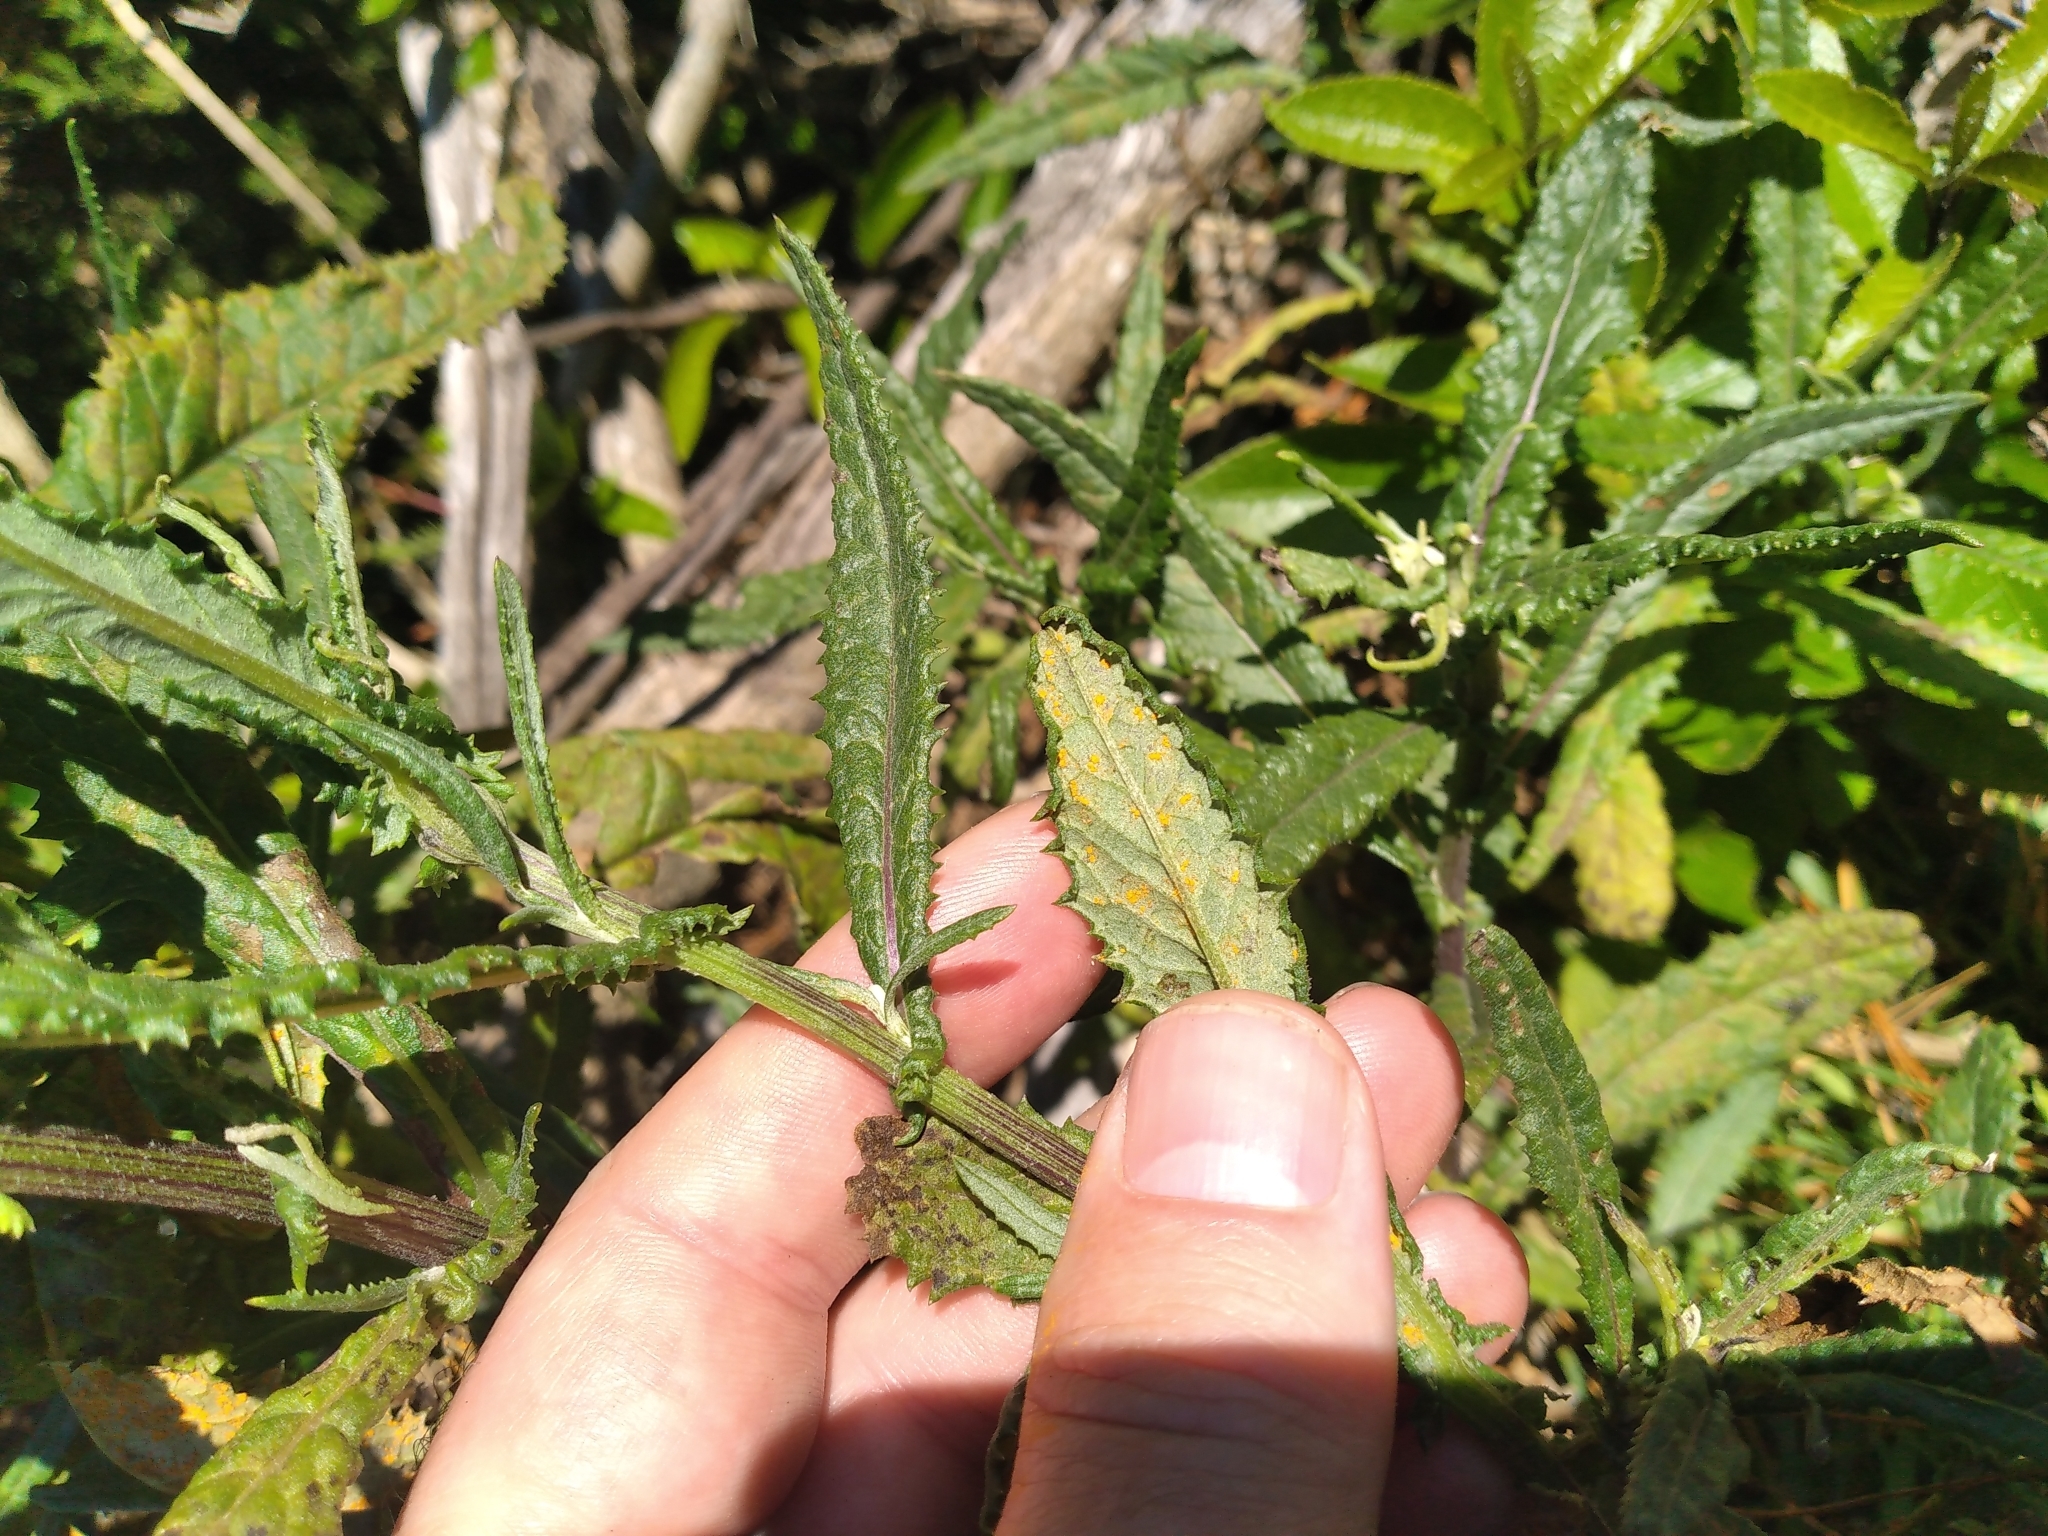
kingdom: Plantae
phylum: Tracheophyta
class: Magnoliopsida
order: Asterales
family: Asteraceae
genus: Senecio
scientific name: Senecio hispidulus
